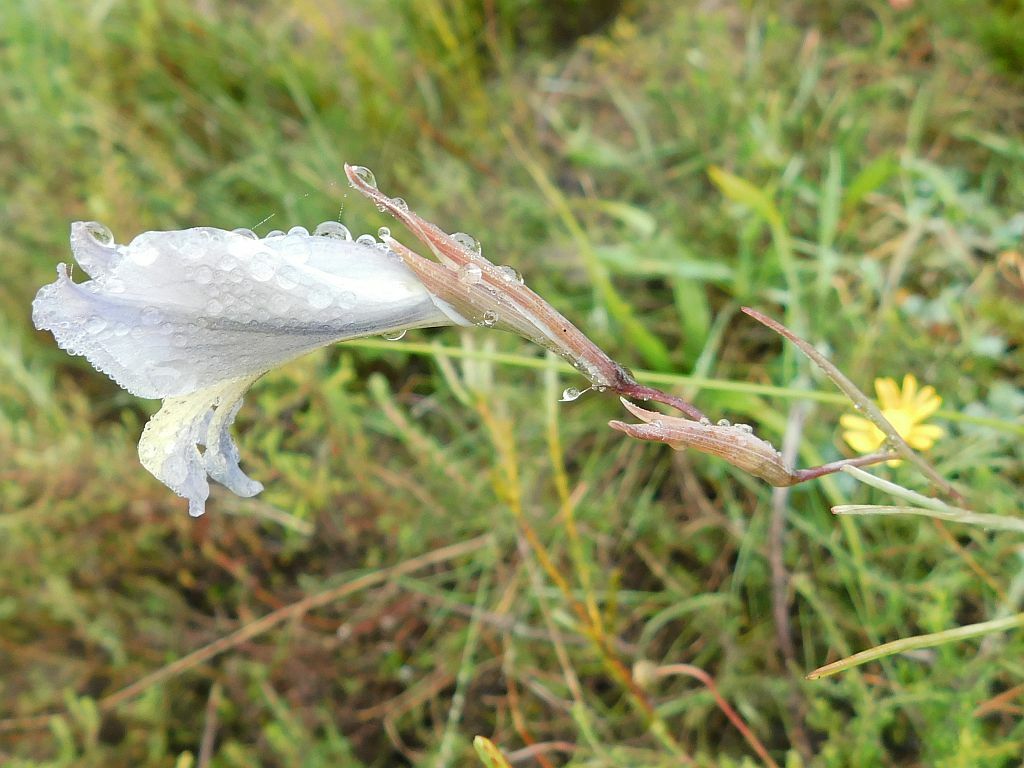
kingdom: Plantae
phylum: Tracheophyta
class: Liliopsida
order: Asparagales
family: Iridaceae
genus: Gladiolus
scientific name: Gladiolus gracilis
